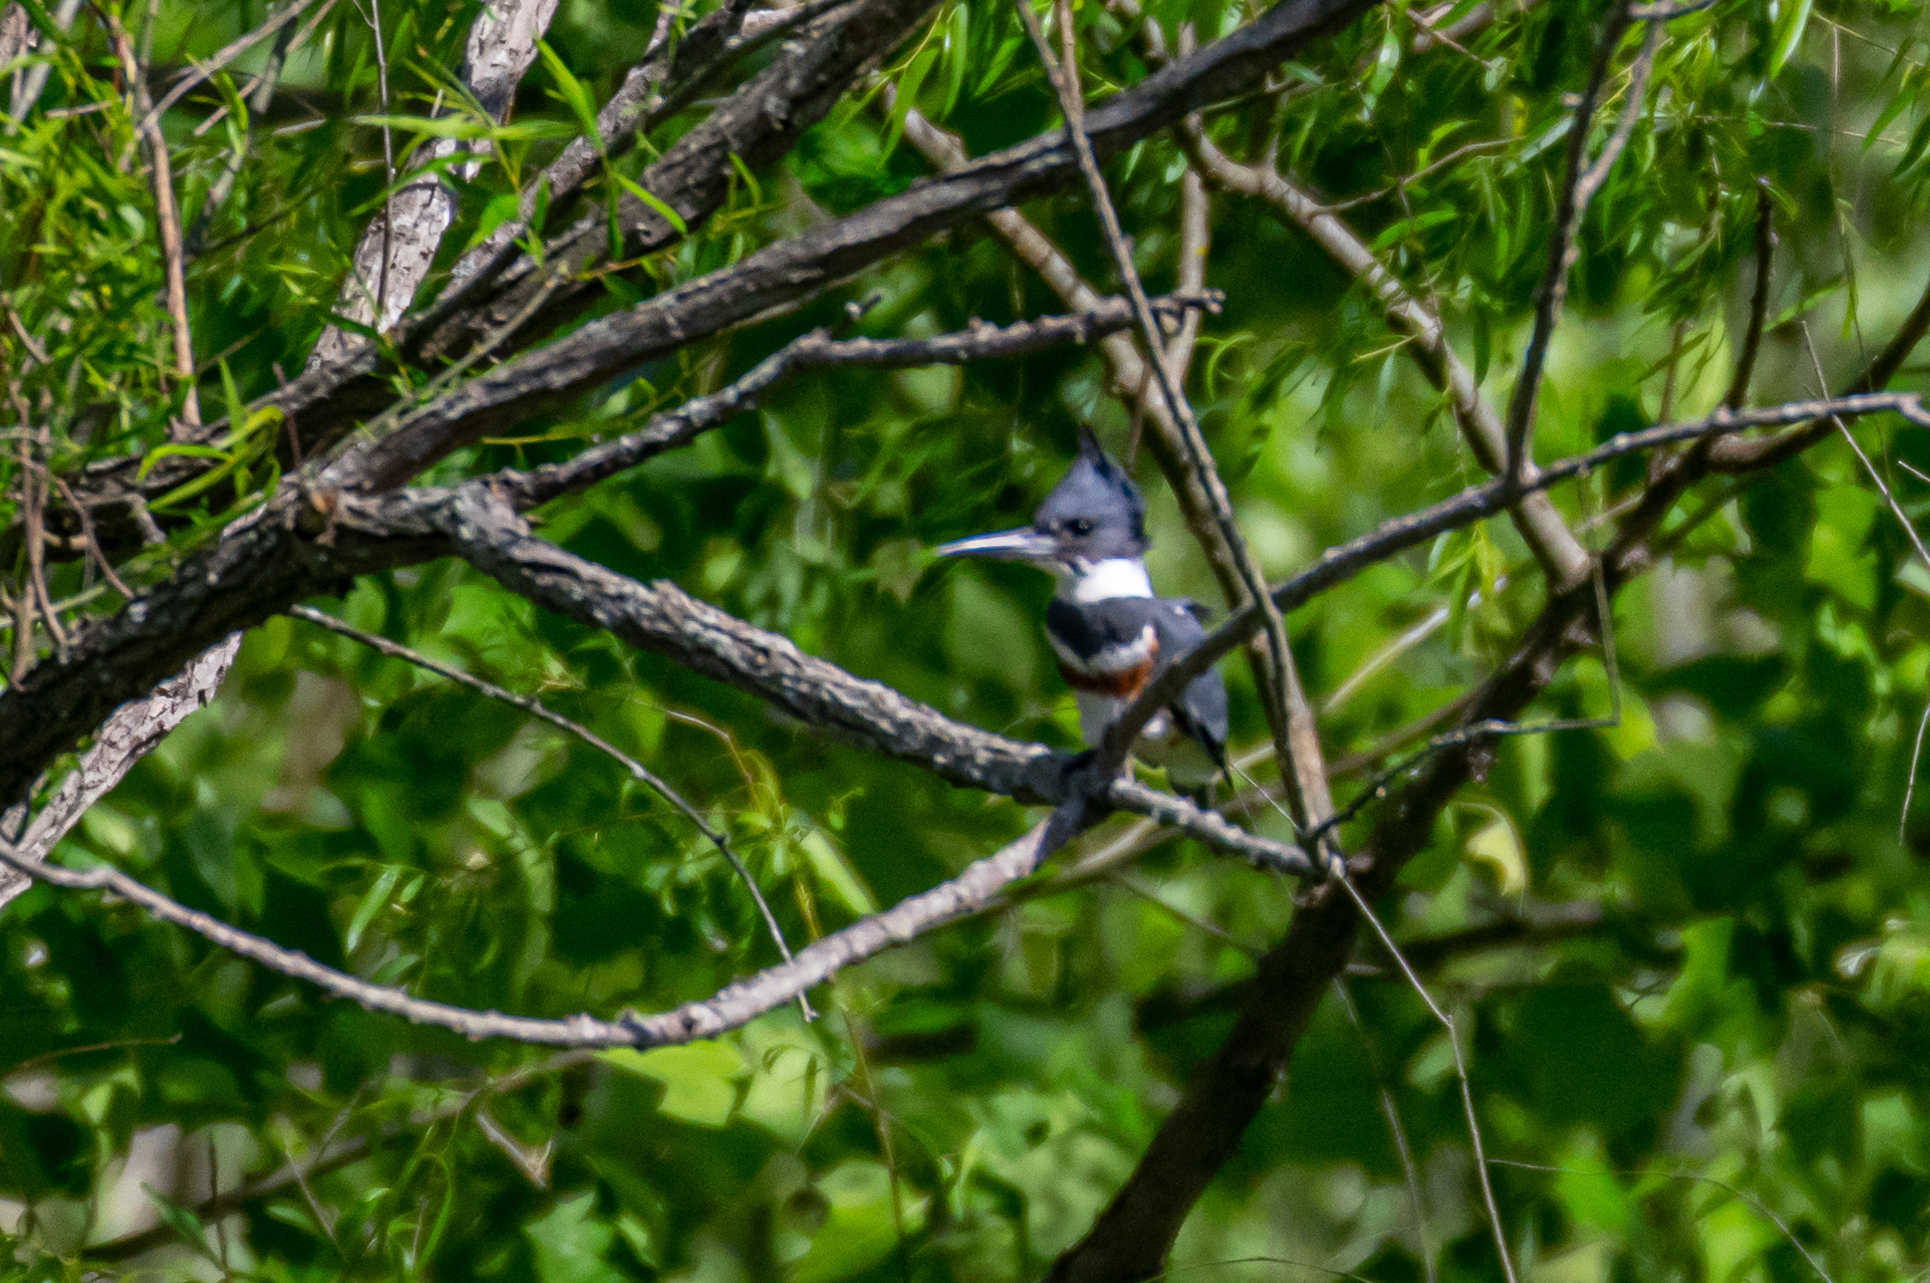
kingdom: Animalia
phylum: Chordata
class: Aves
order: Coraciiformes
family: Alcedinidae
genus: Megaceryle
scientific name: Megaceryle alcyon
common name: Belted kingfisher
